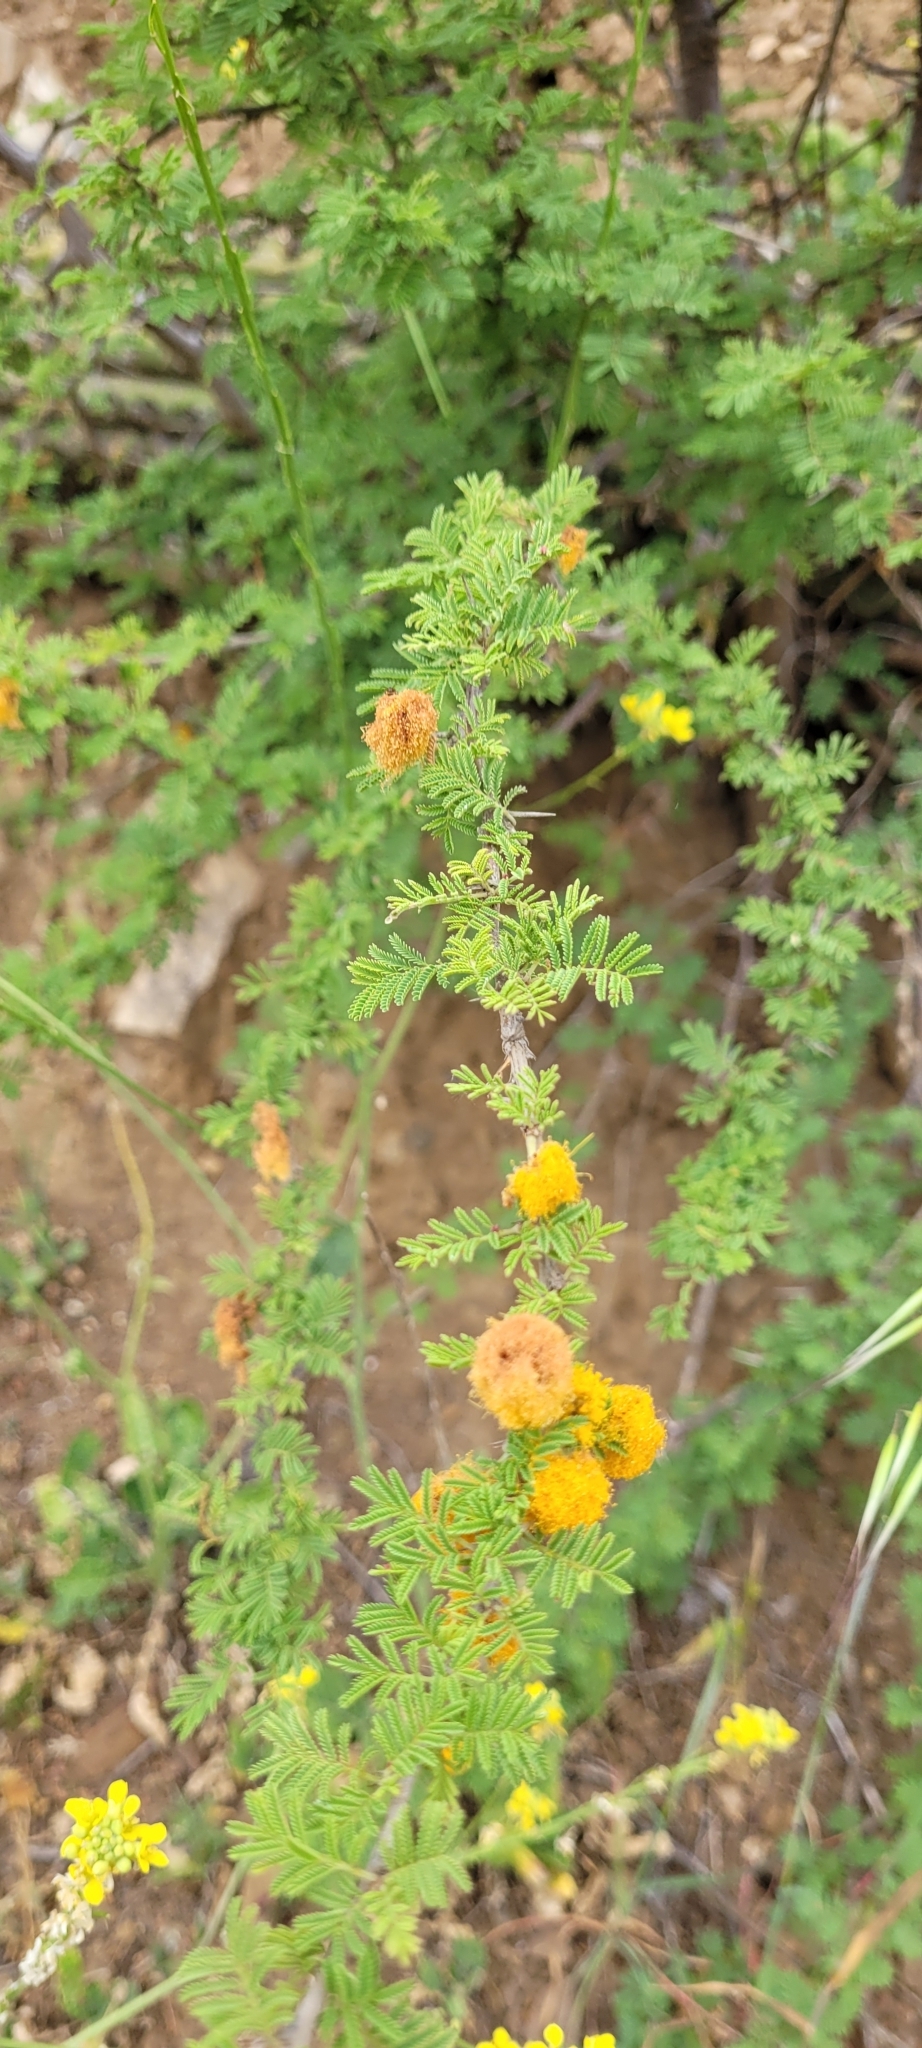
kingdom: Plantae
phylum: Tracheophyta
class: Magnoliopsida
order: Fabales
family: Fabaceae
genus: Vachellia
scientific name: Vachellia caven
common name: Roman cassie
